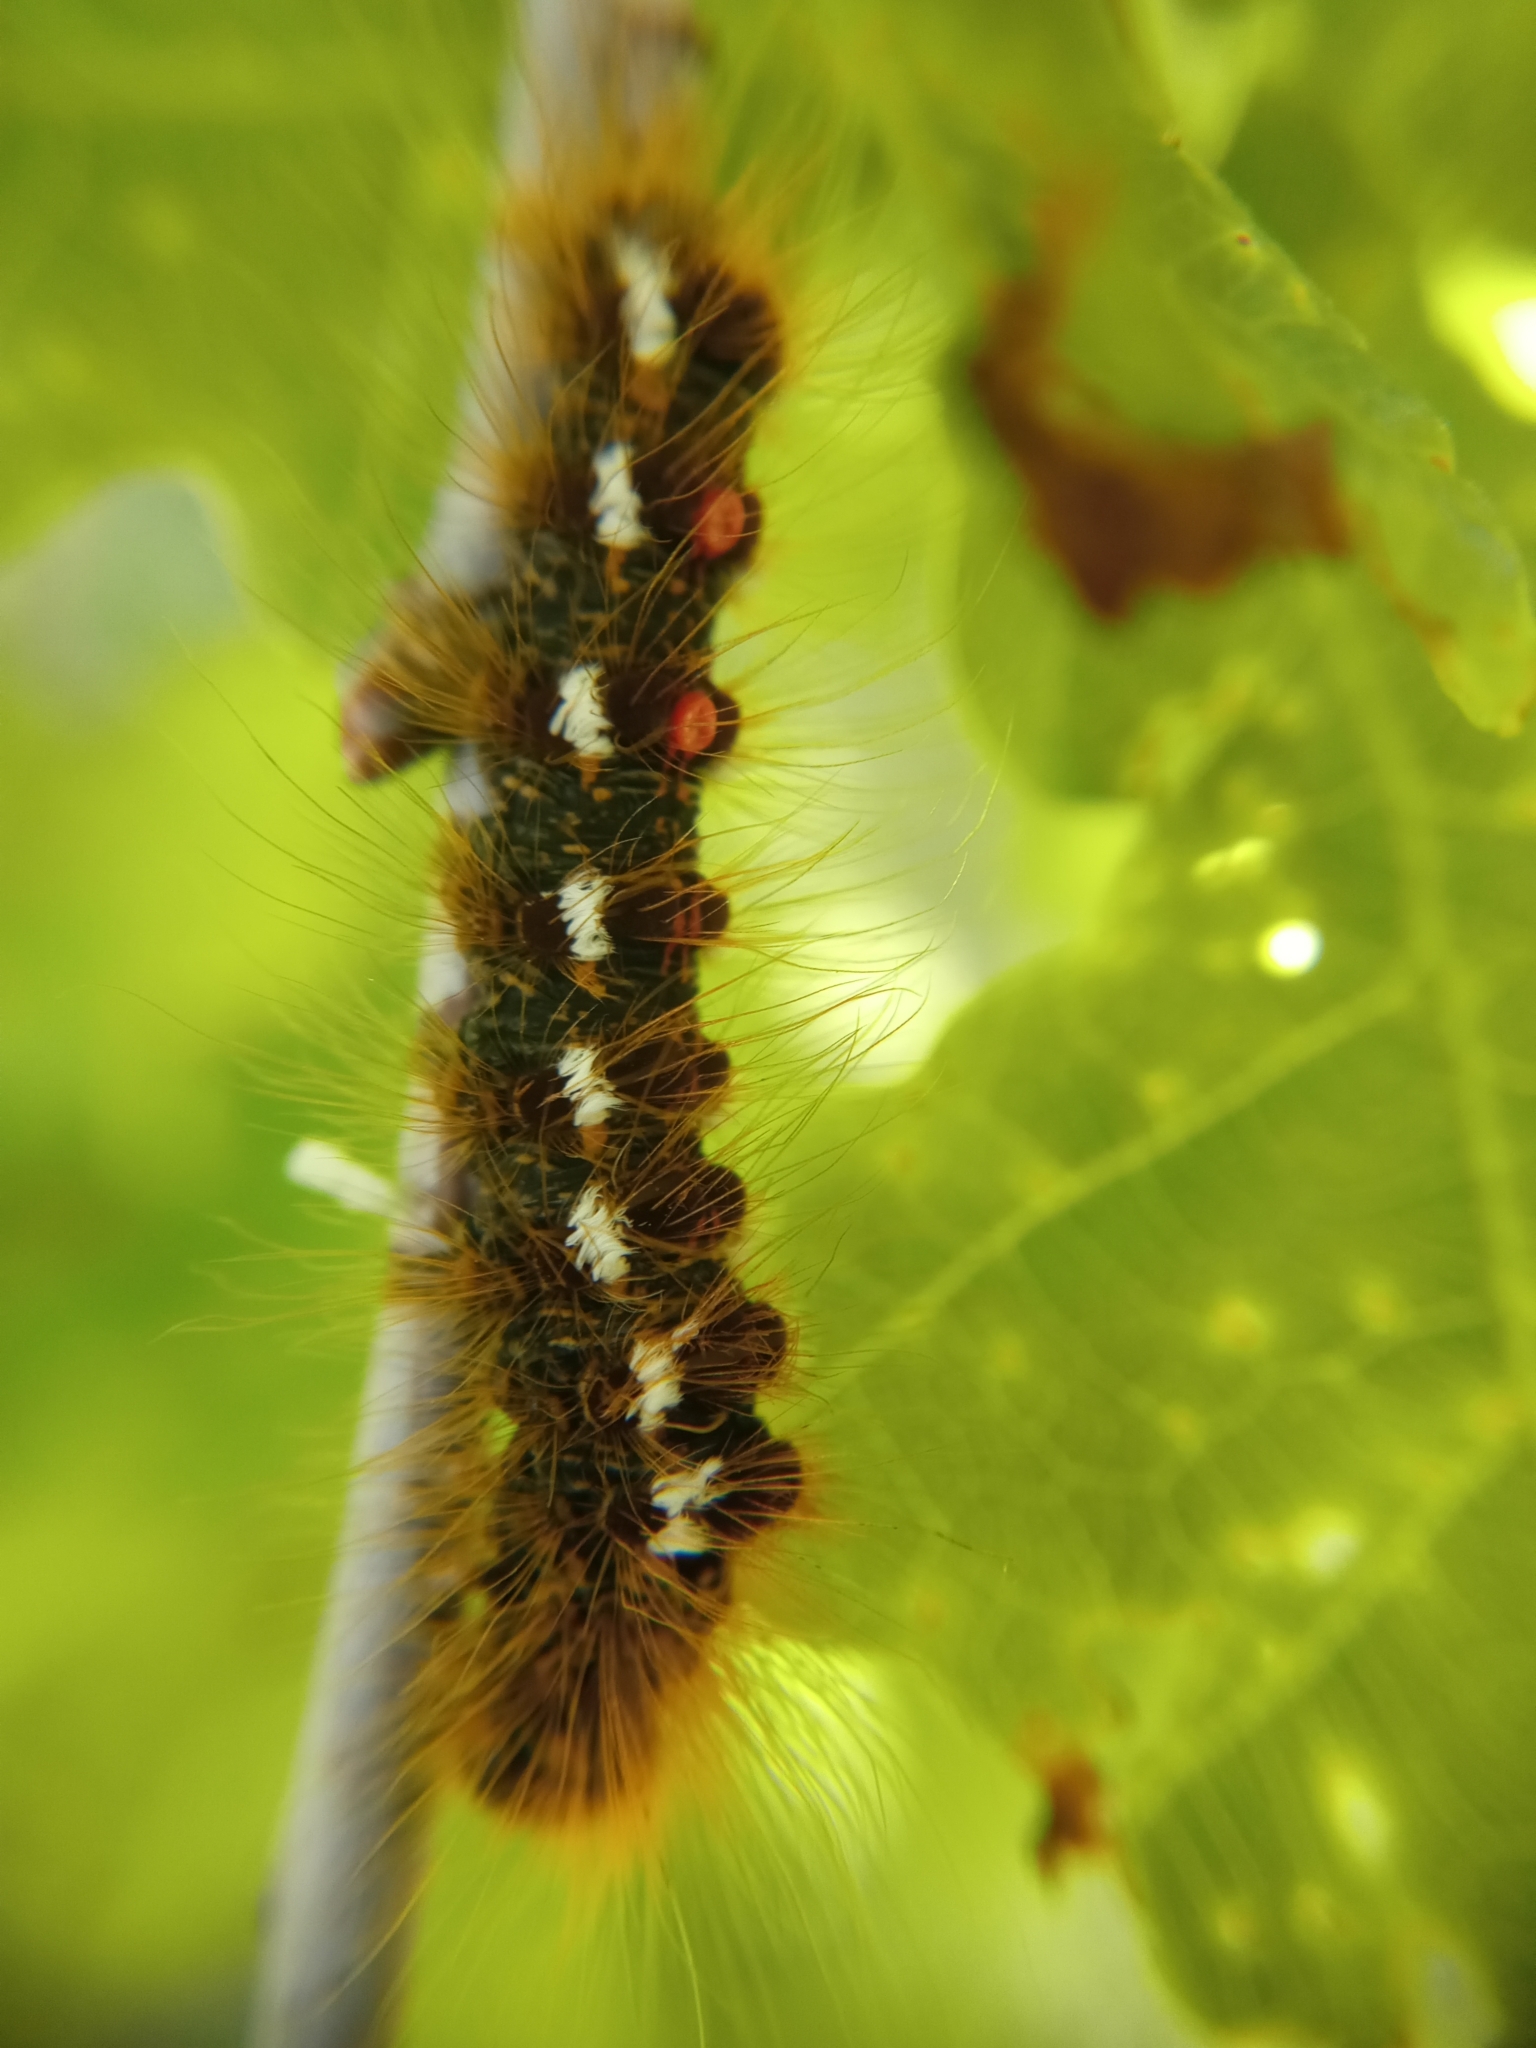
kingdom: Animalia
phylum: Arthropoda
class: Insecta
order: Lepidoptera
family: Erebidae
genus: Euproctis
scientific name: Euproctis chrysorrhoea
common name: Brown-tail
